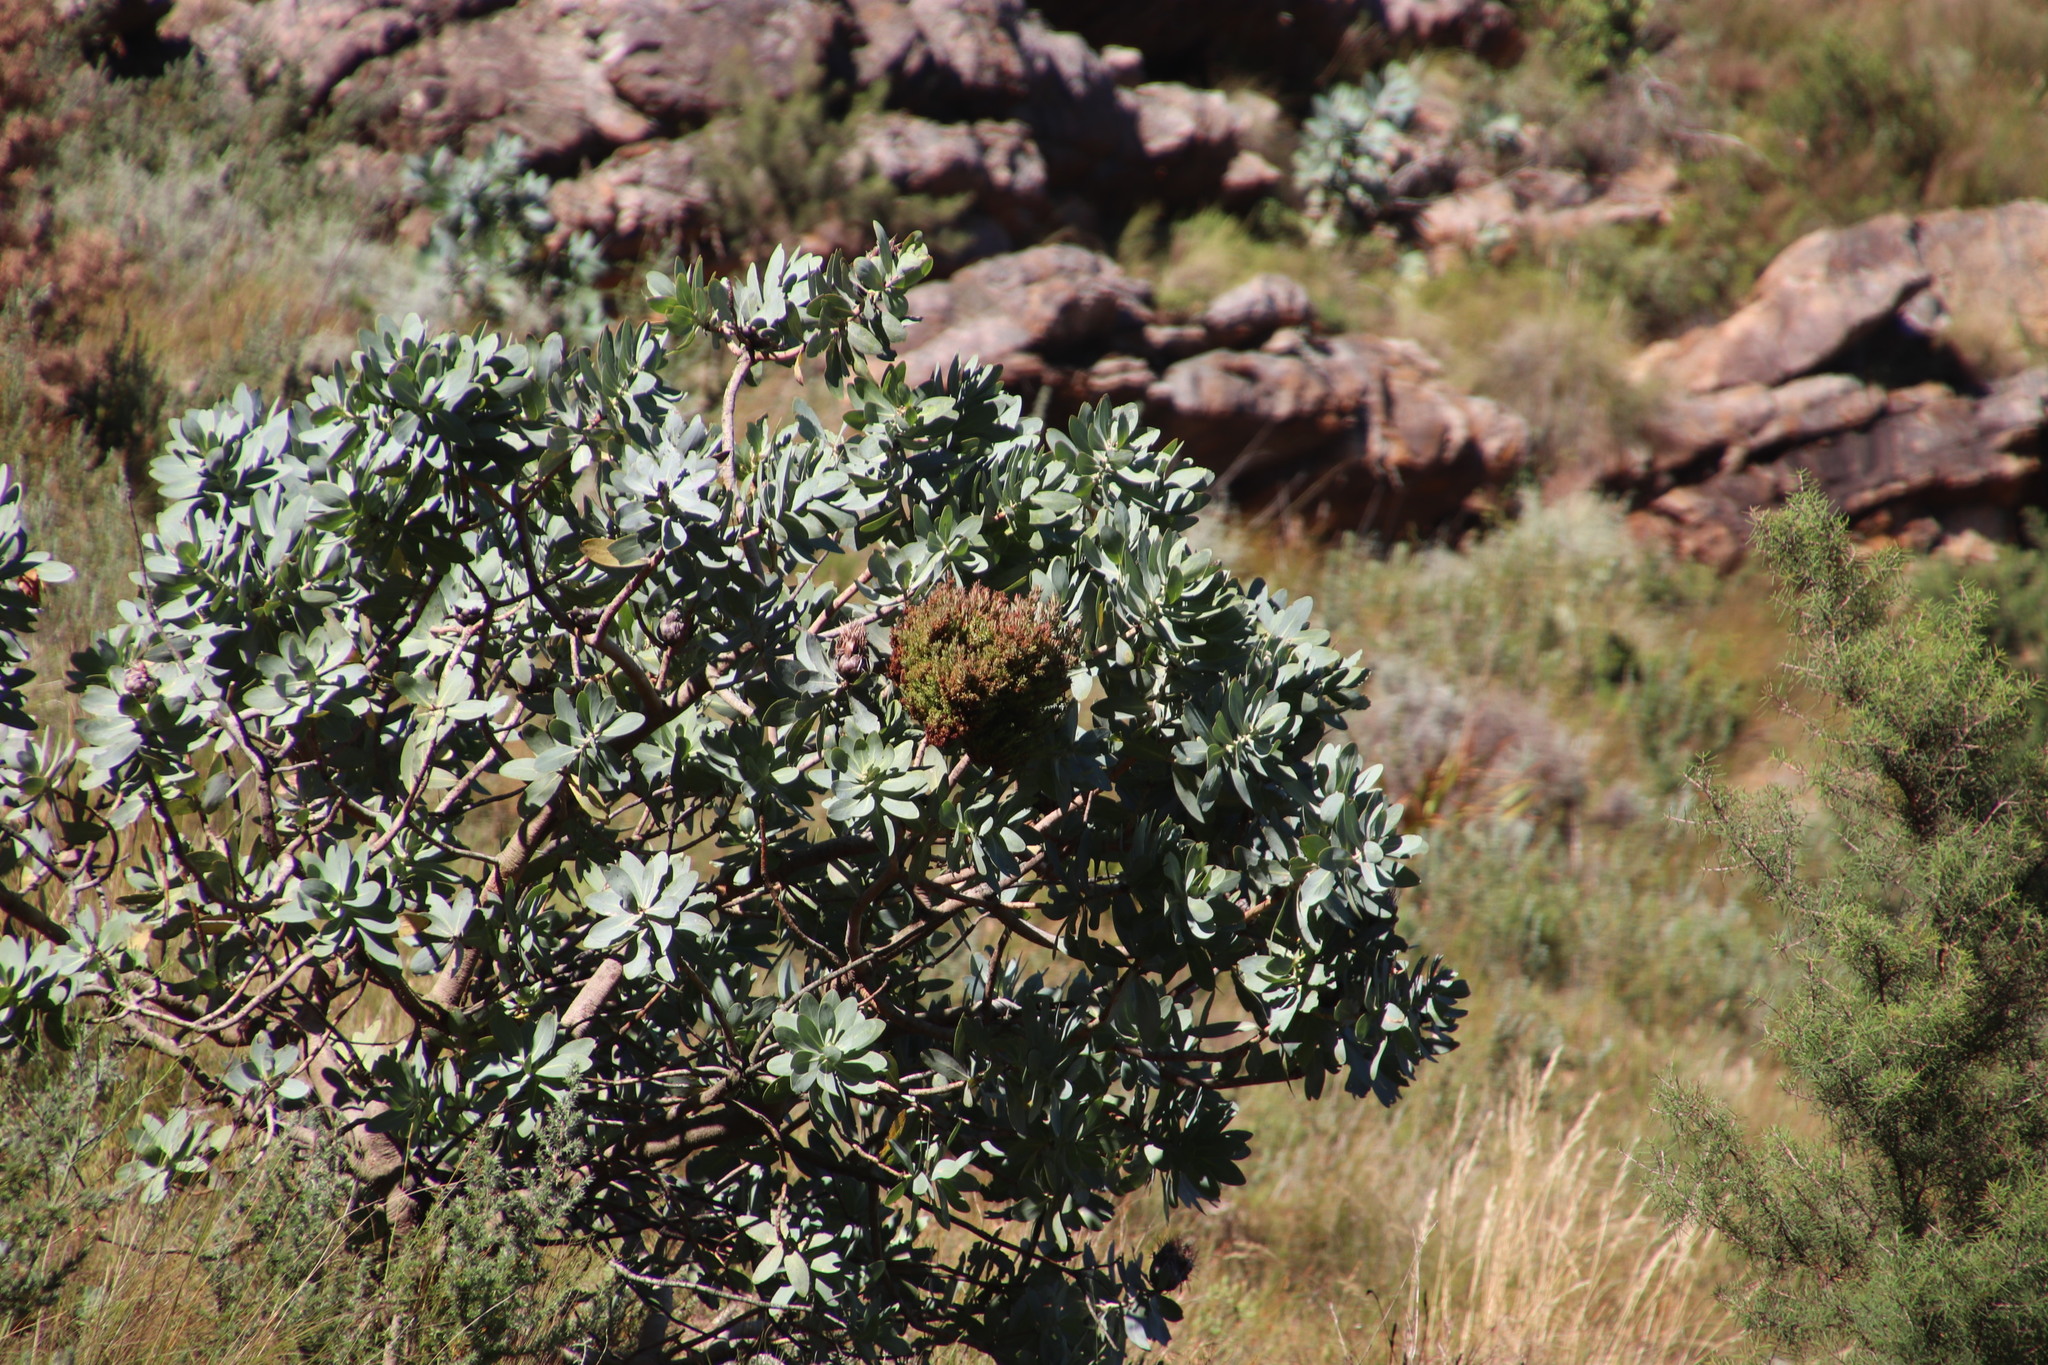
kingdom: Plantae
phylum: Tracheophyta
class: Magnoliopsida
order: Proteales
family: Proteaceae
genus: Protea
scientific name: Protea nitida
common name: Tree protea
